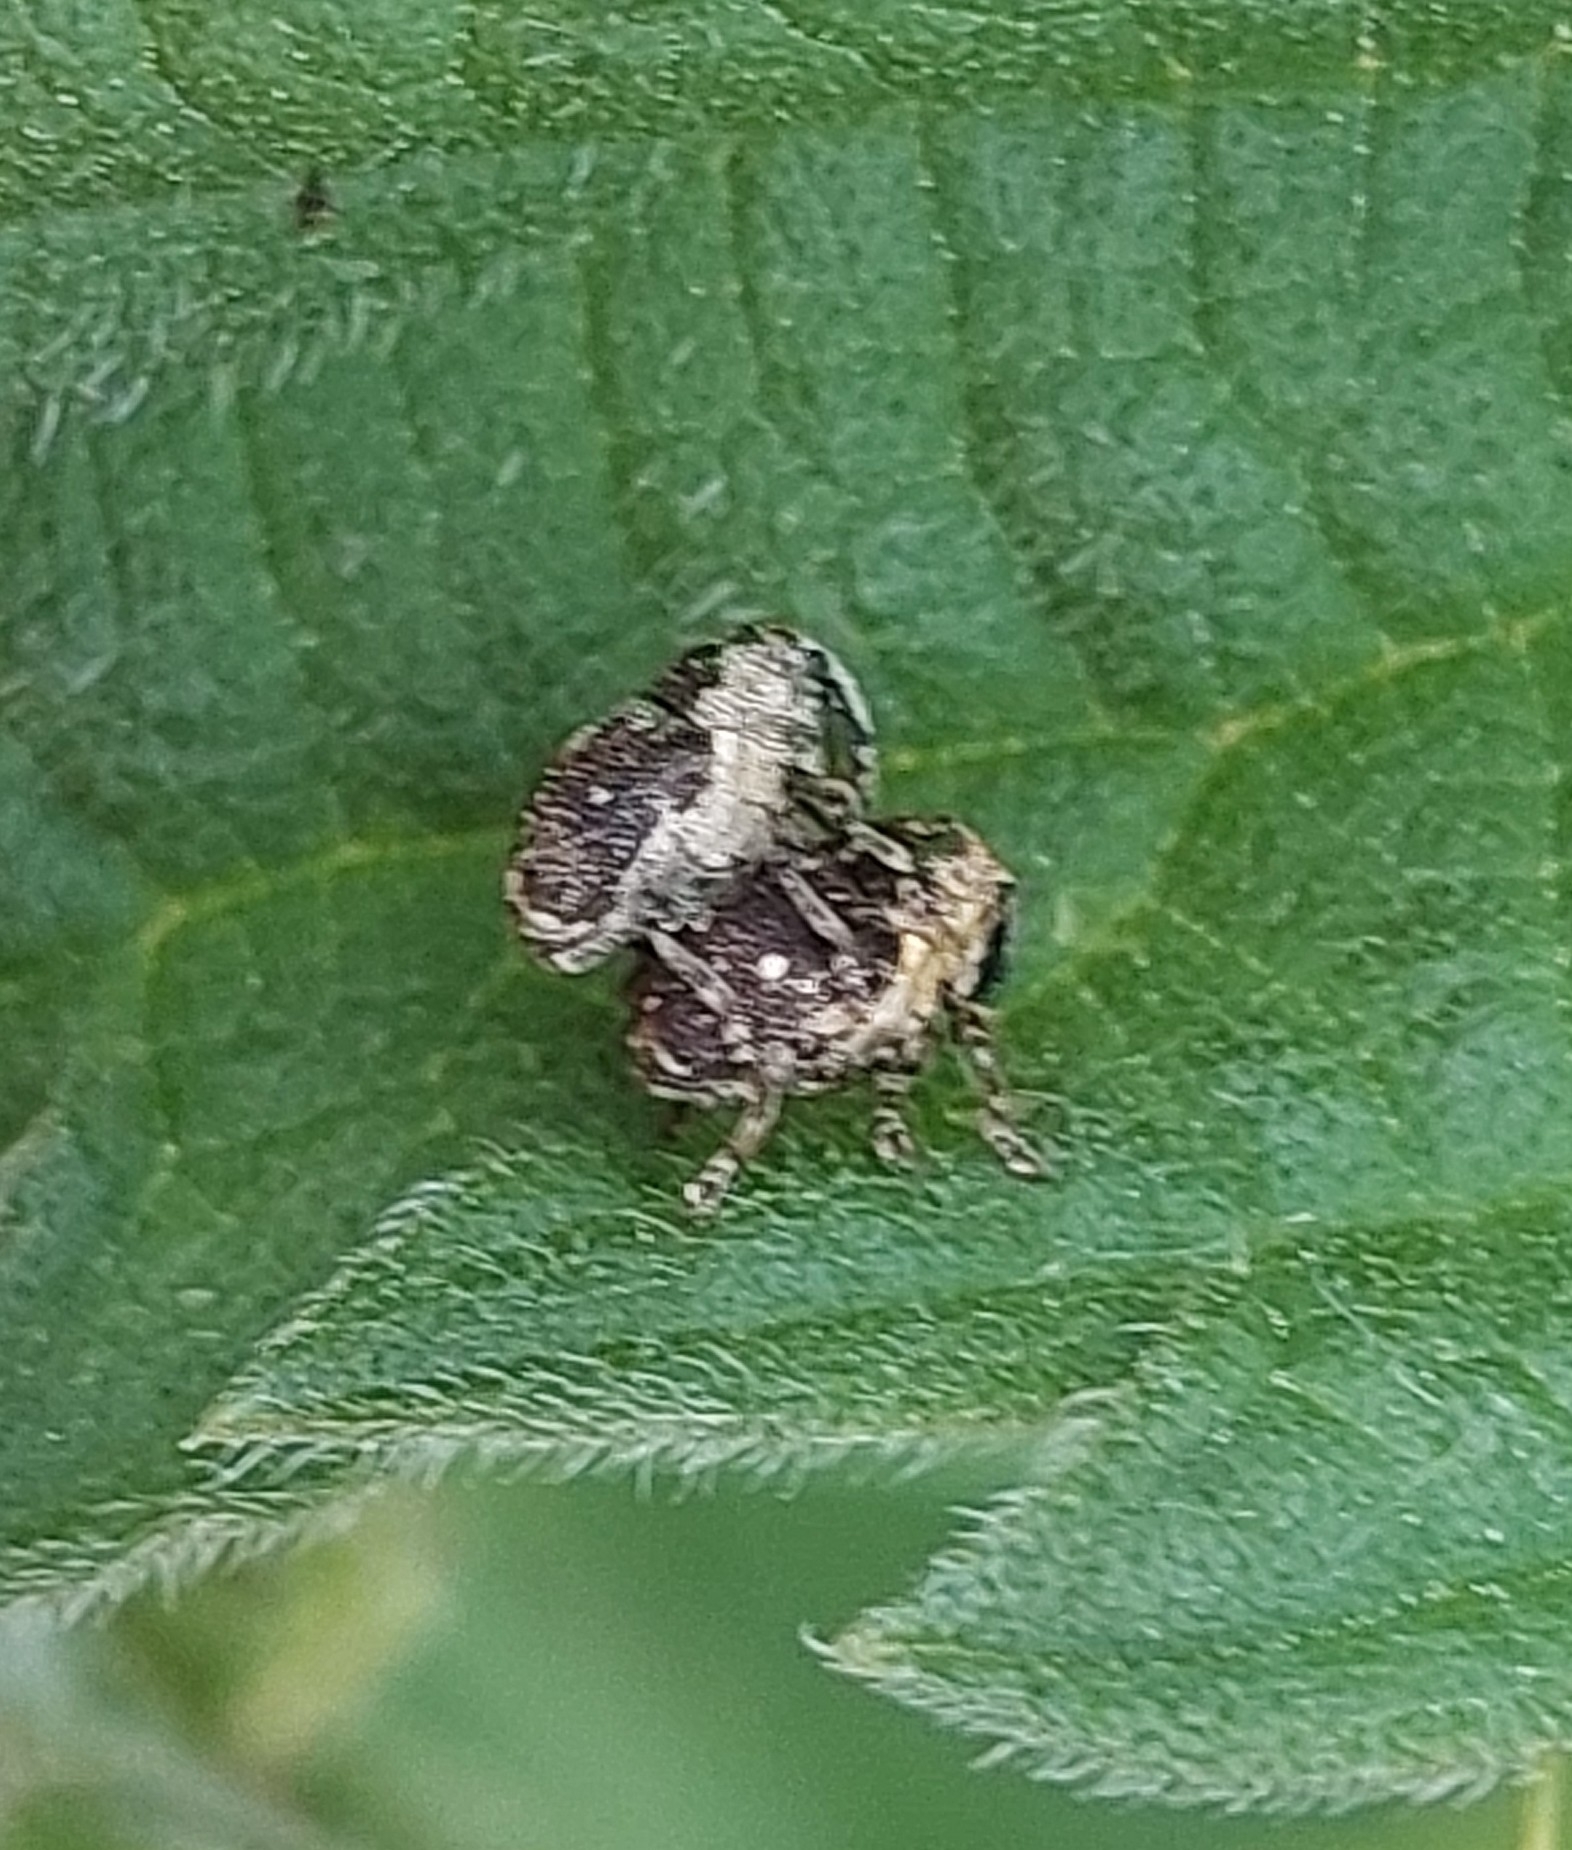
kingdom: Animalia
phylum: Arthropoda
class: Insecta
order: Coleoptera
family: Curculionidae
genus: Nedyus
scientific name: Nedyus quadrimaculatus
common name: Small nettle weevil
